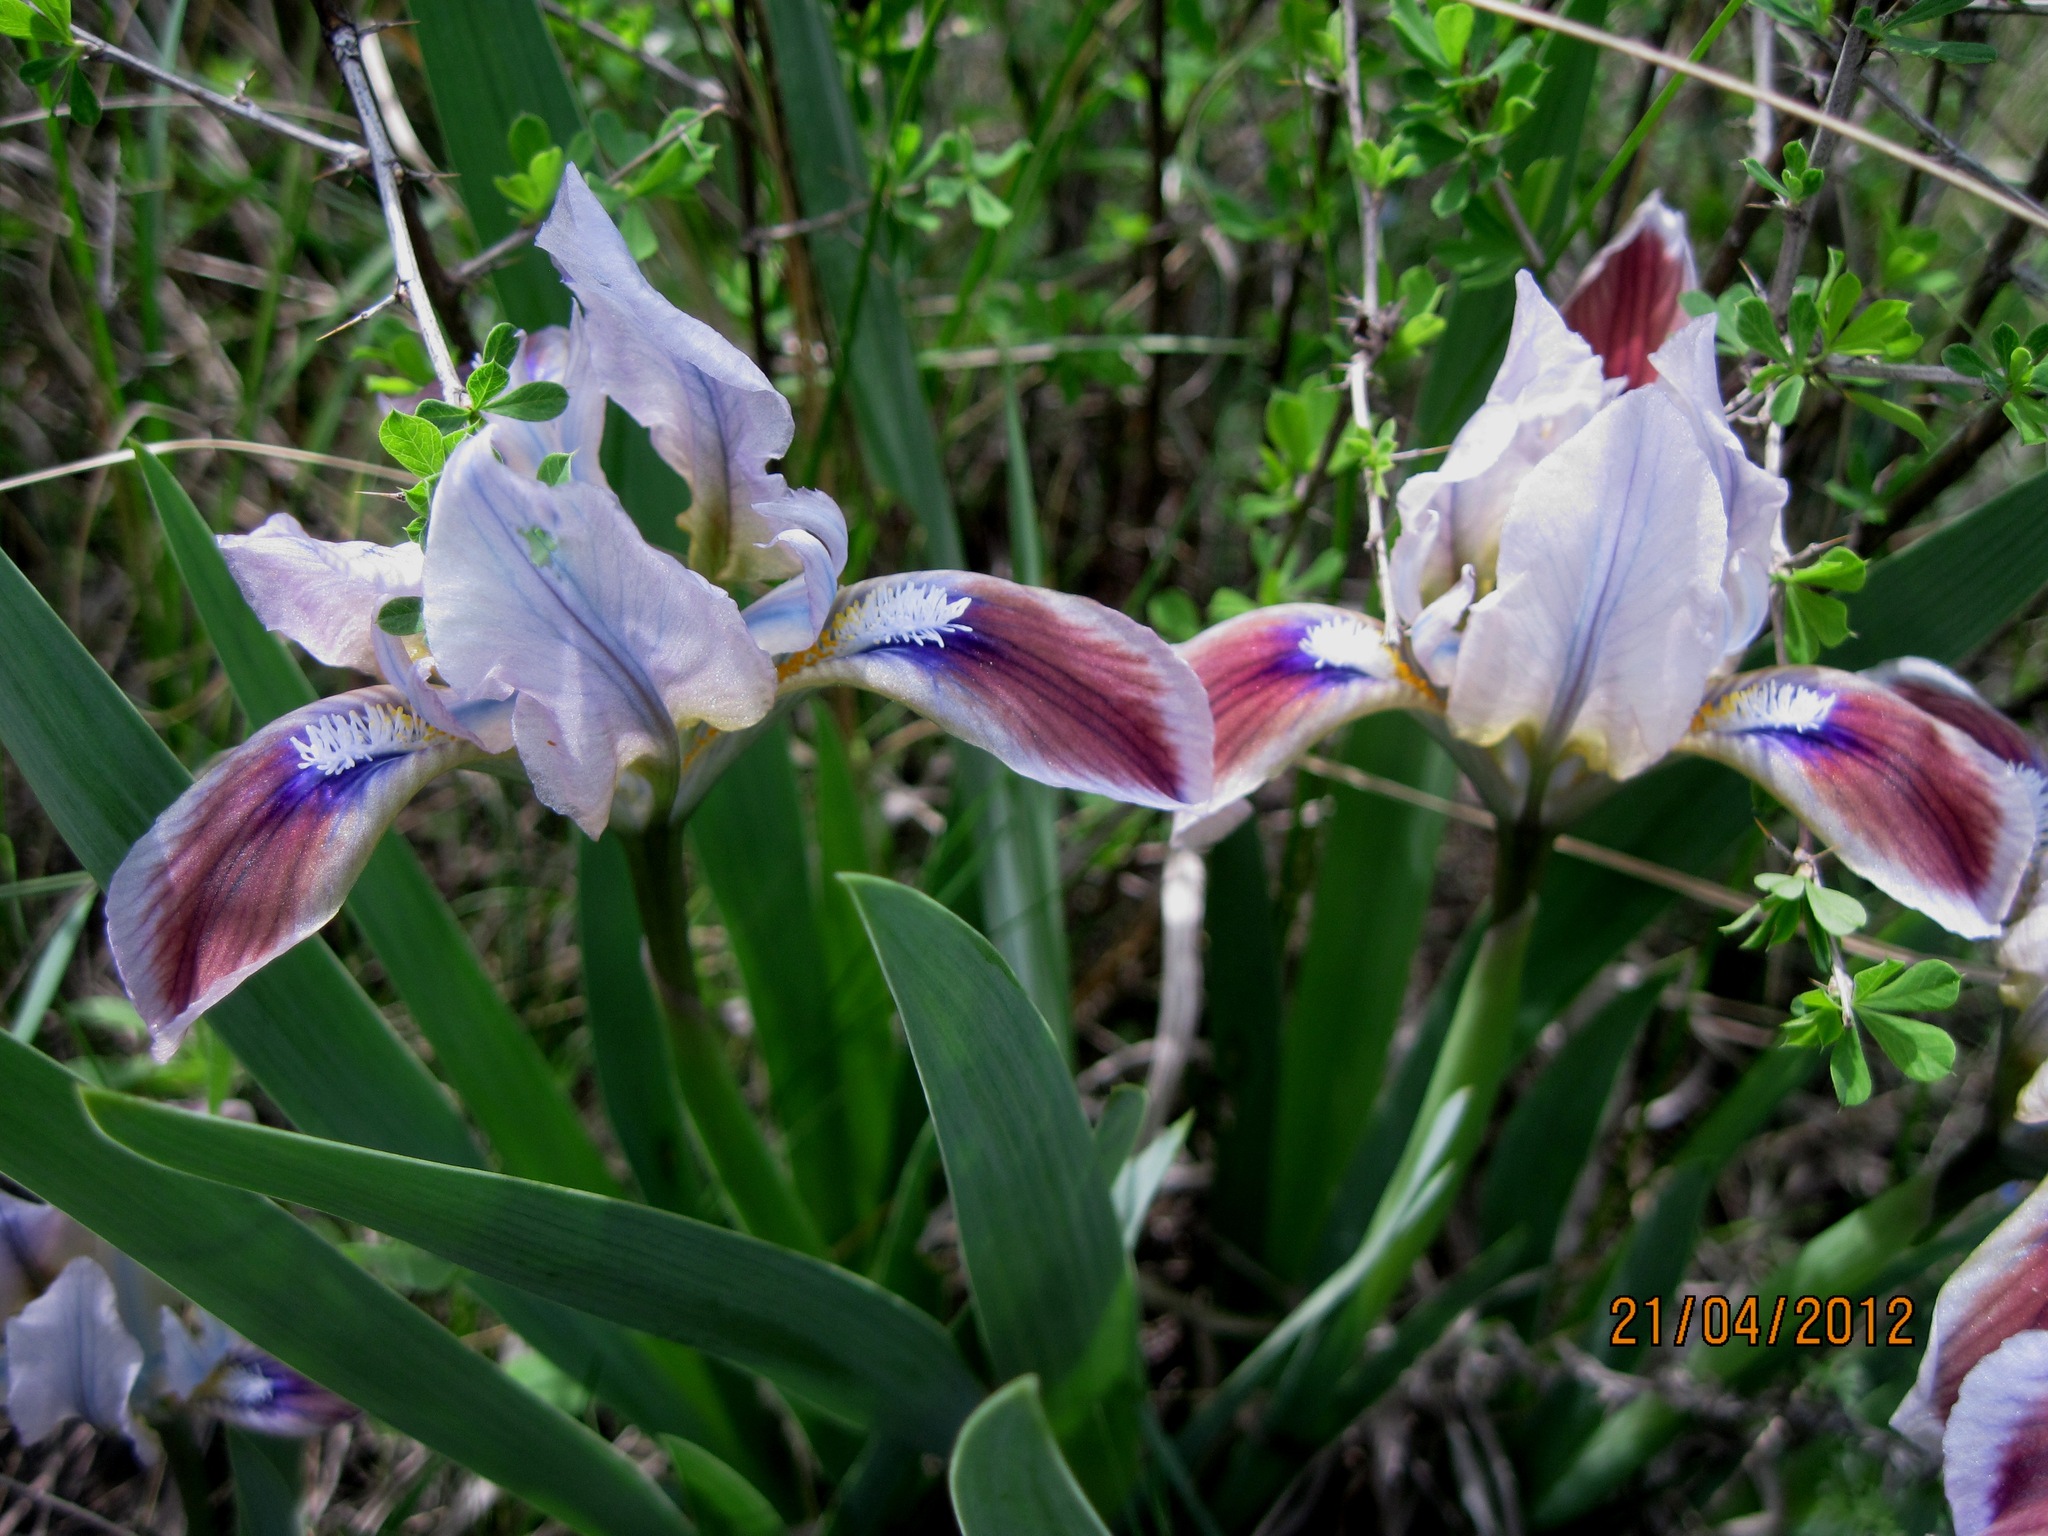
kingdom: Plantae
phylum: Tracheophyta
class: Liliopsida
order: Asparagales
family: Iridaceae
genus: Iris
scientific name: Iris pumila
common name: Dwarf iris
